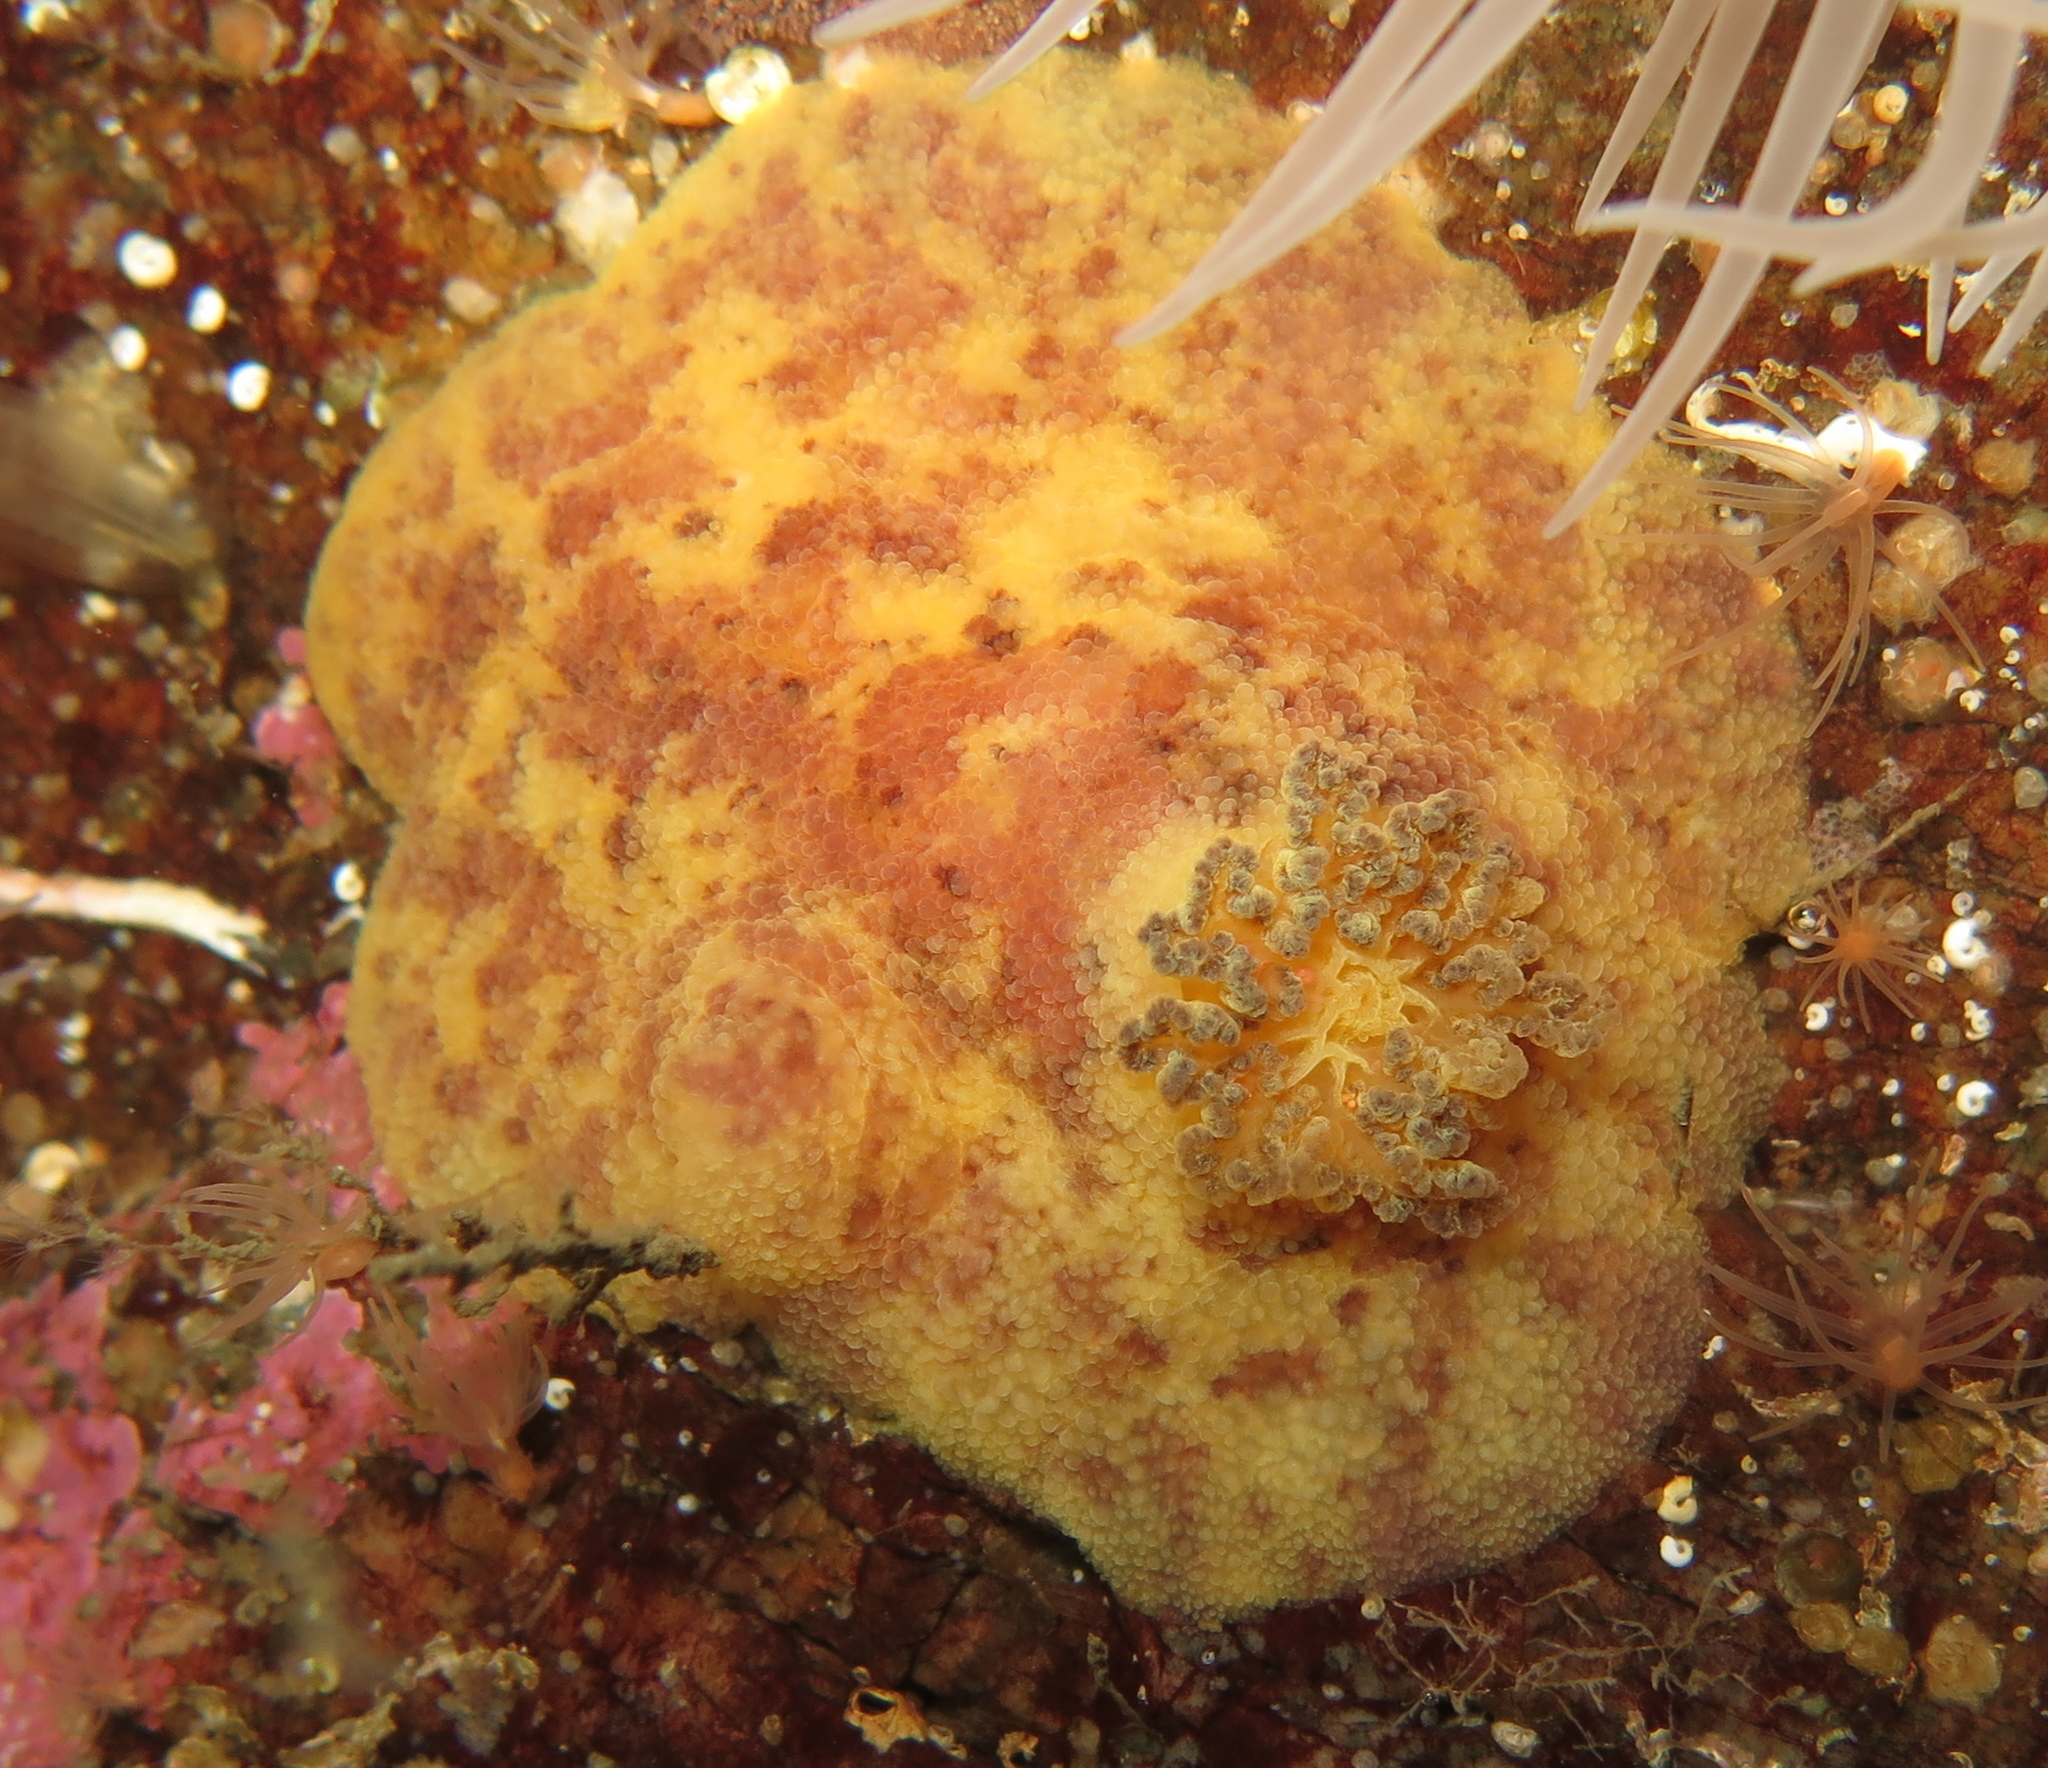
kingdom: Animalia
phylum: Mollusca
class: Gastropoda
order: Nudibranchia
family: Dorididae
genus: Doris
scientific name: Doris pseudoargus
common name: Sea lemon
